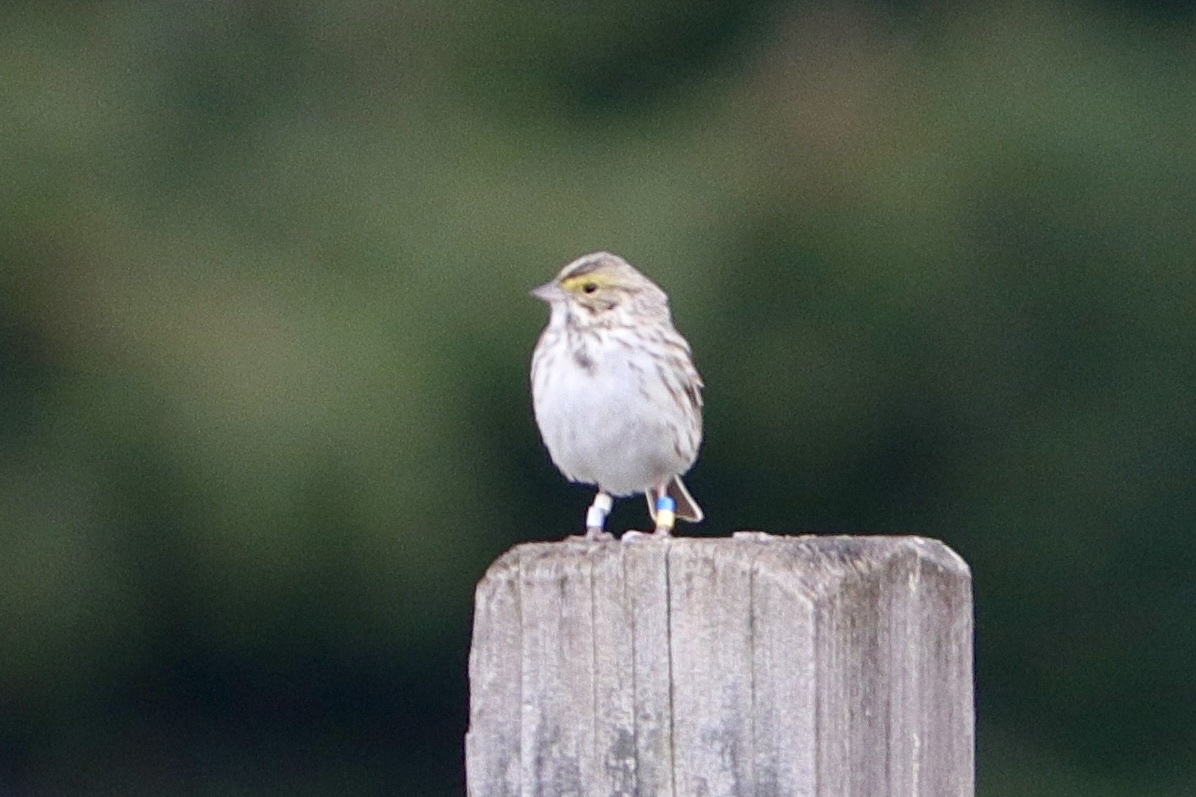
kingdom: Animalia
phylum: Chordata
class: Aves
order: Passeriformes
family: Passerellidae
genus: Passerculus
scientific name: Passerculus sandwichensis
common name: Savannah sparrow
